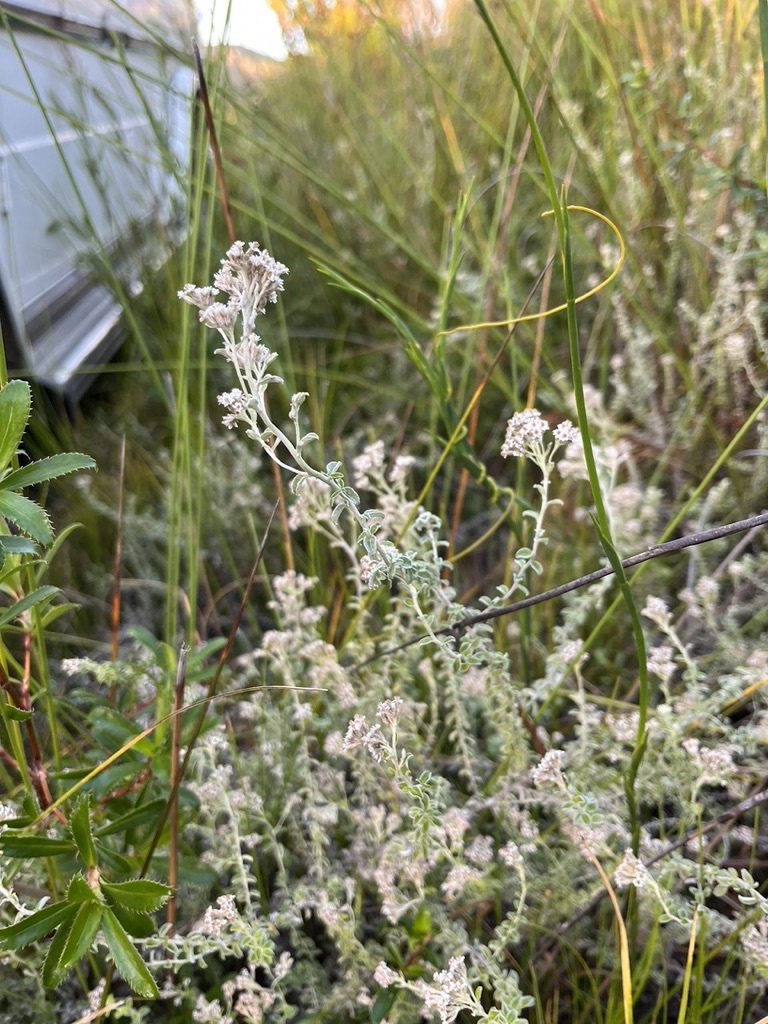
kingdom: Plantae
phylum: Tracheophyta
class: Magnoliopsida
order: Asterales
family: Asteraceae
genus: Plecostachys
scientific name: Plecostachys serpyllifolia
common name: Petite licorice
